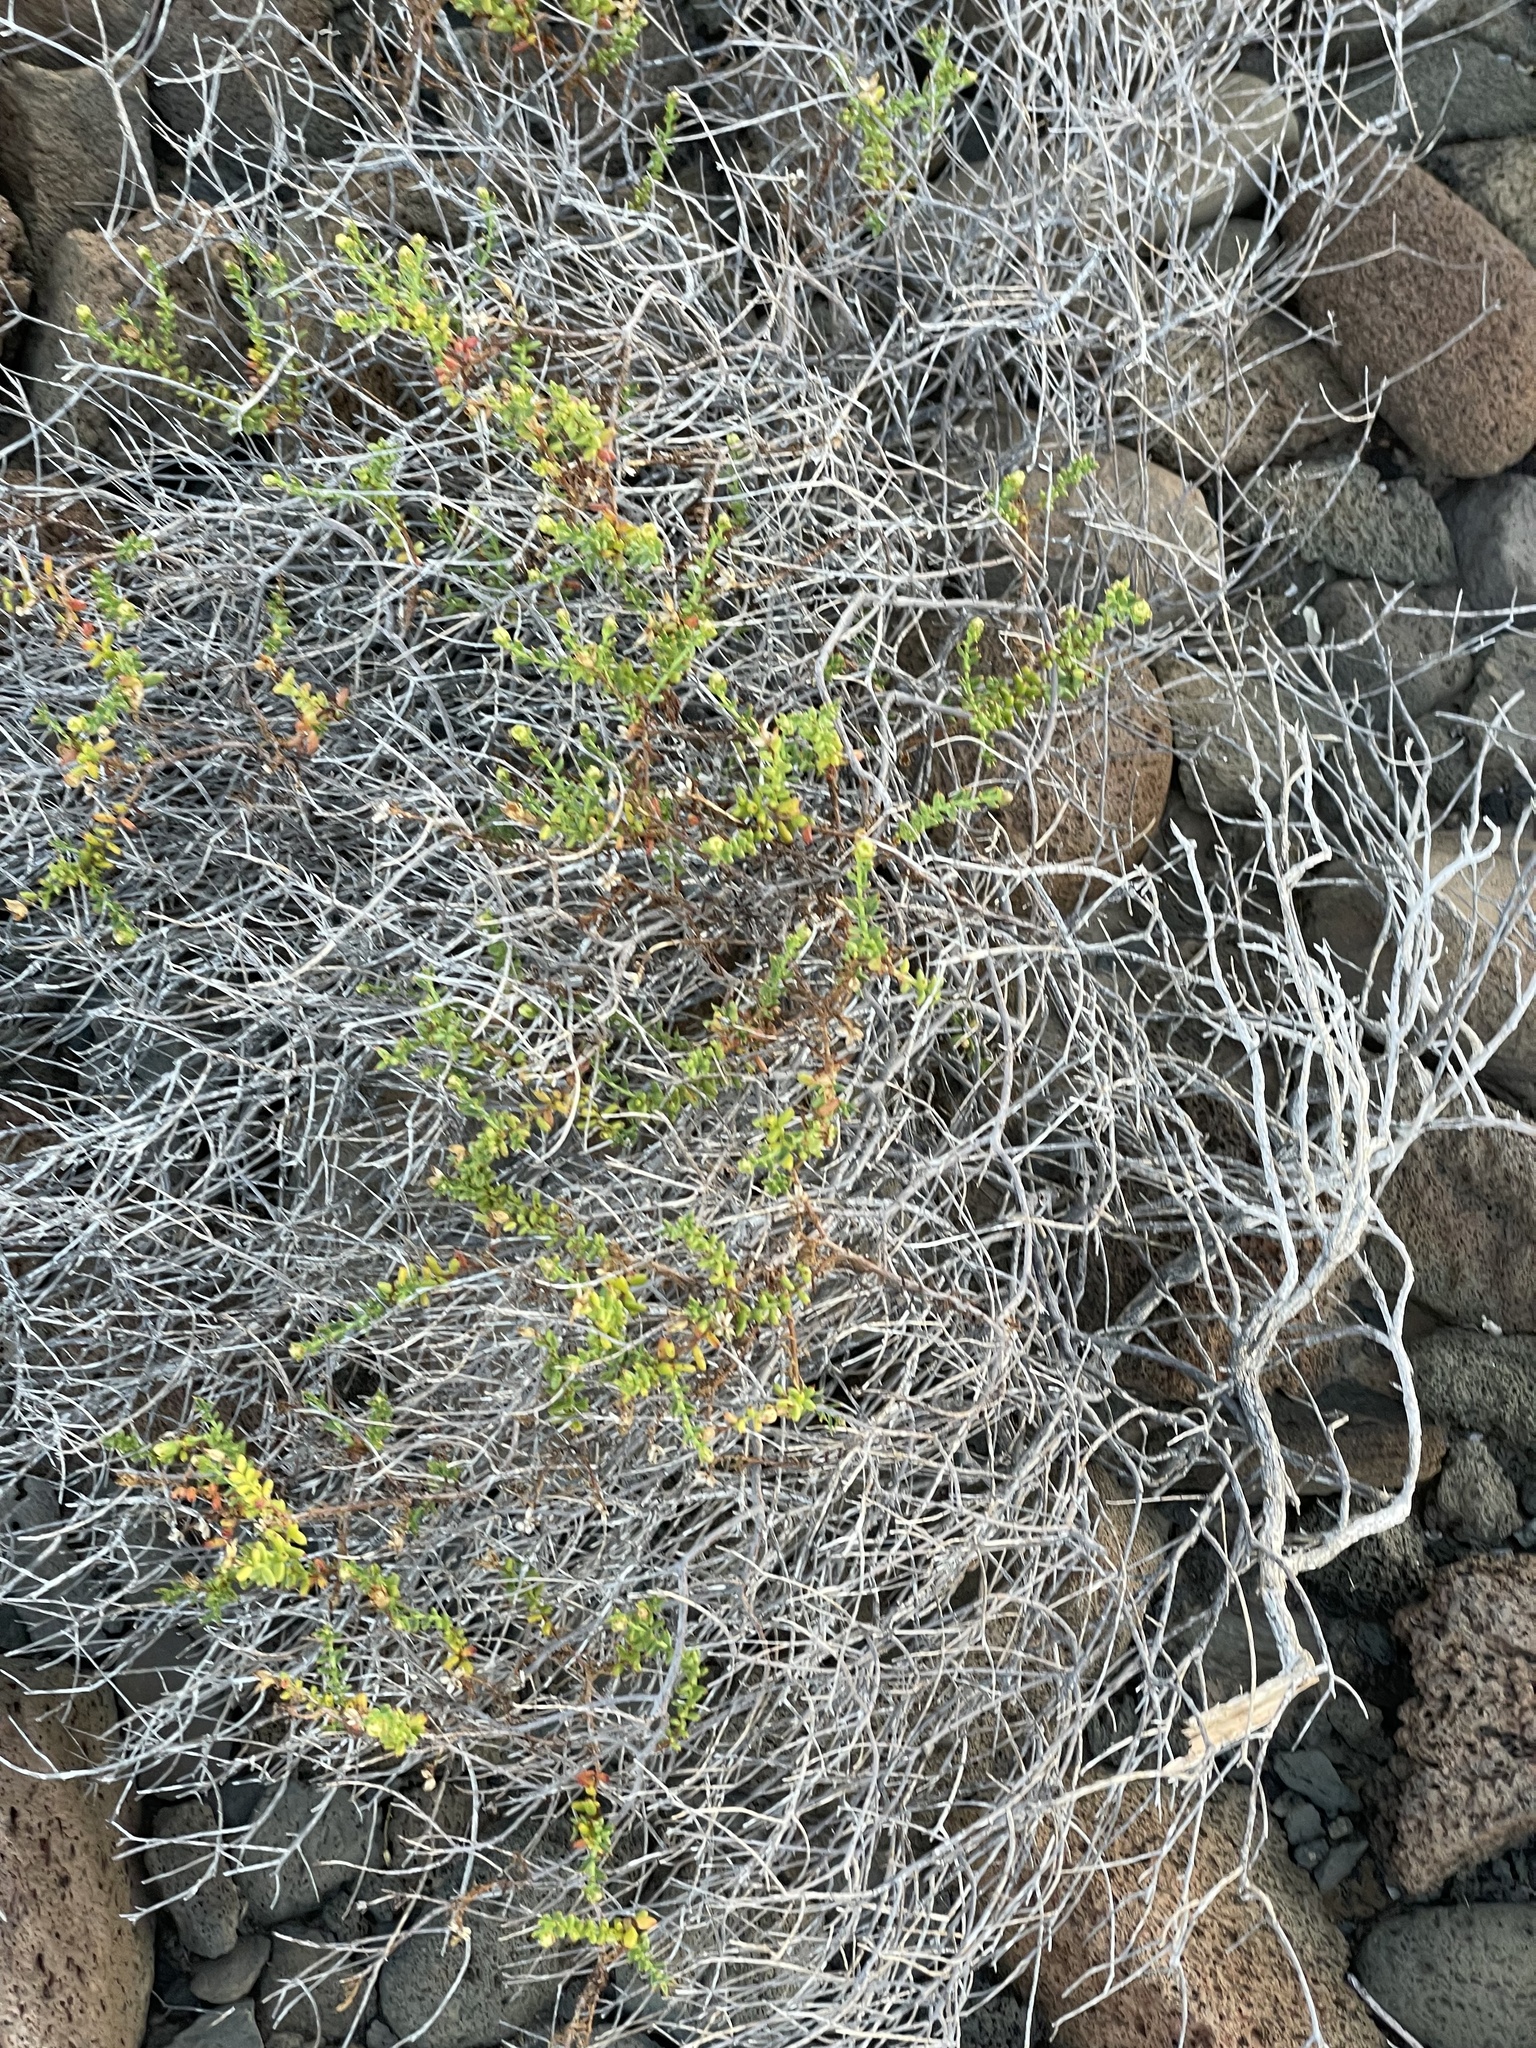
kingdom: Plantae
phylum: Tracheophyta
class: Magnoliopsida
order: Asterales
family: Asteraceae
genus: Bajacalia
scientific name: Bajacalia crassifolia
